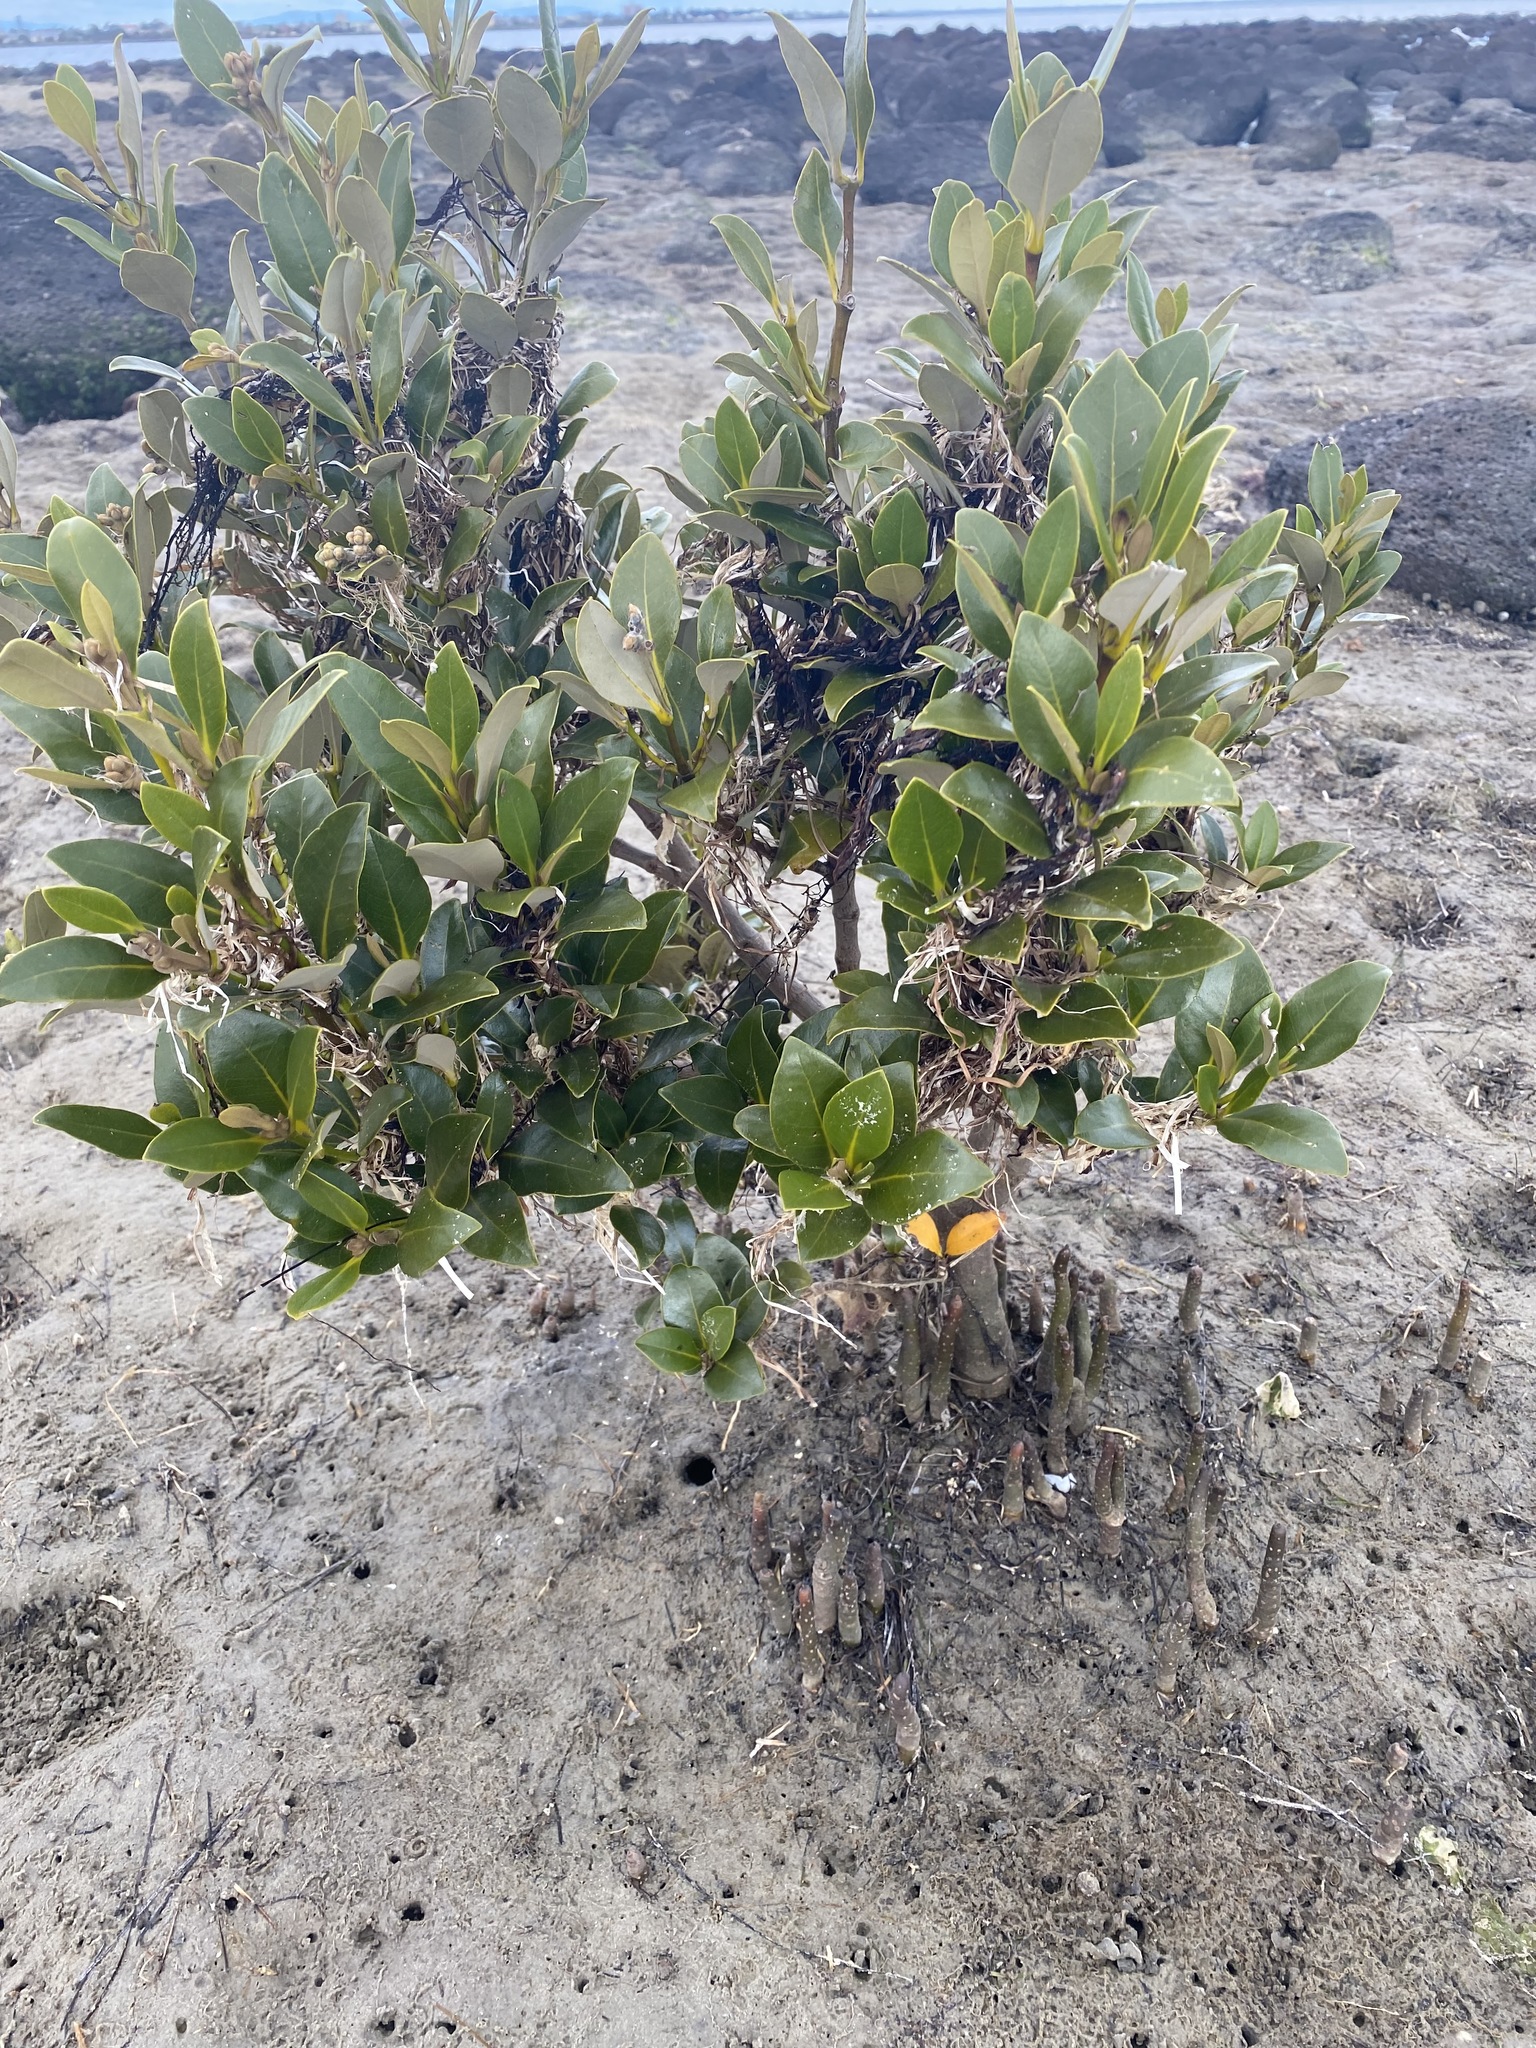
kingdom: Plantae
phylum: Tracheophyta
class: Magnoliopsida
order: Lamiales
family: Acanthaceae
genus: Avicennia
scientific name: Avicennia marina
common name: Gray mangrove
